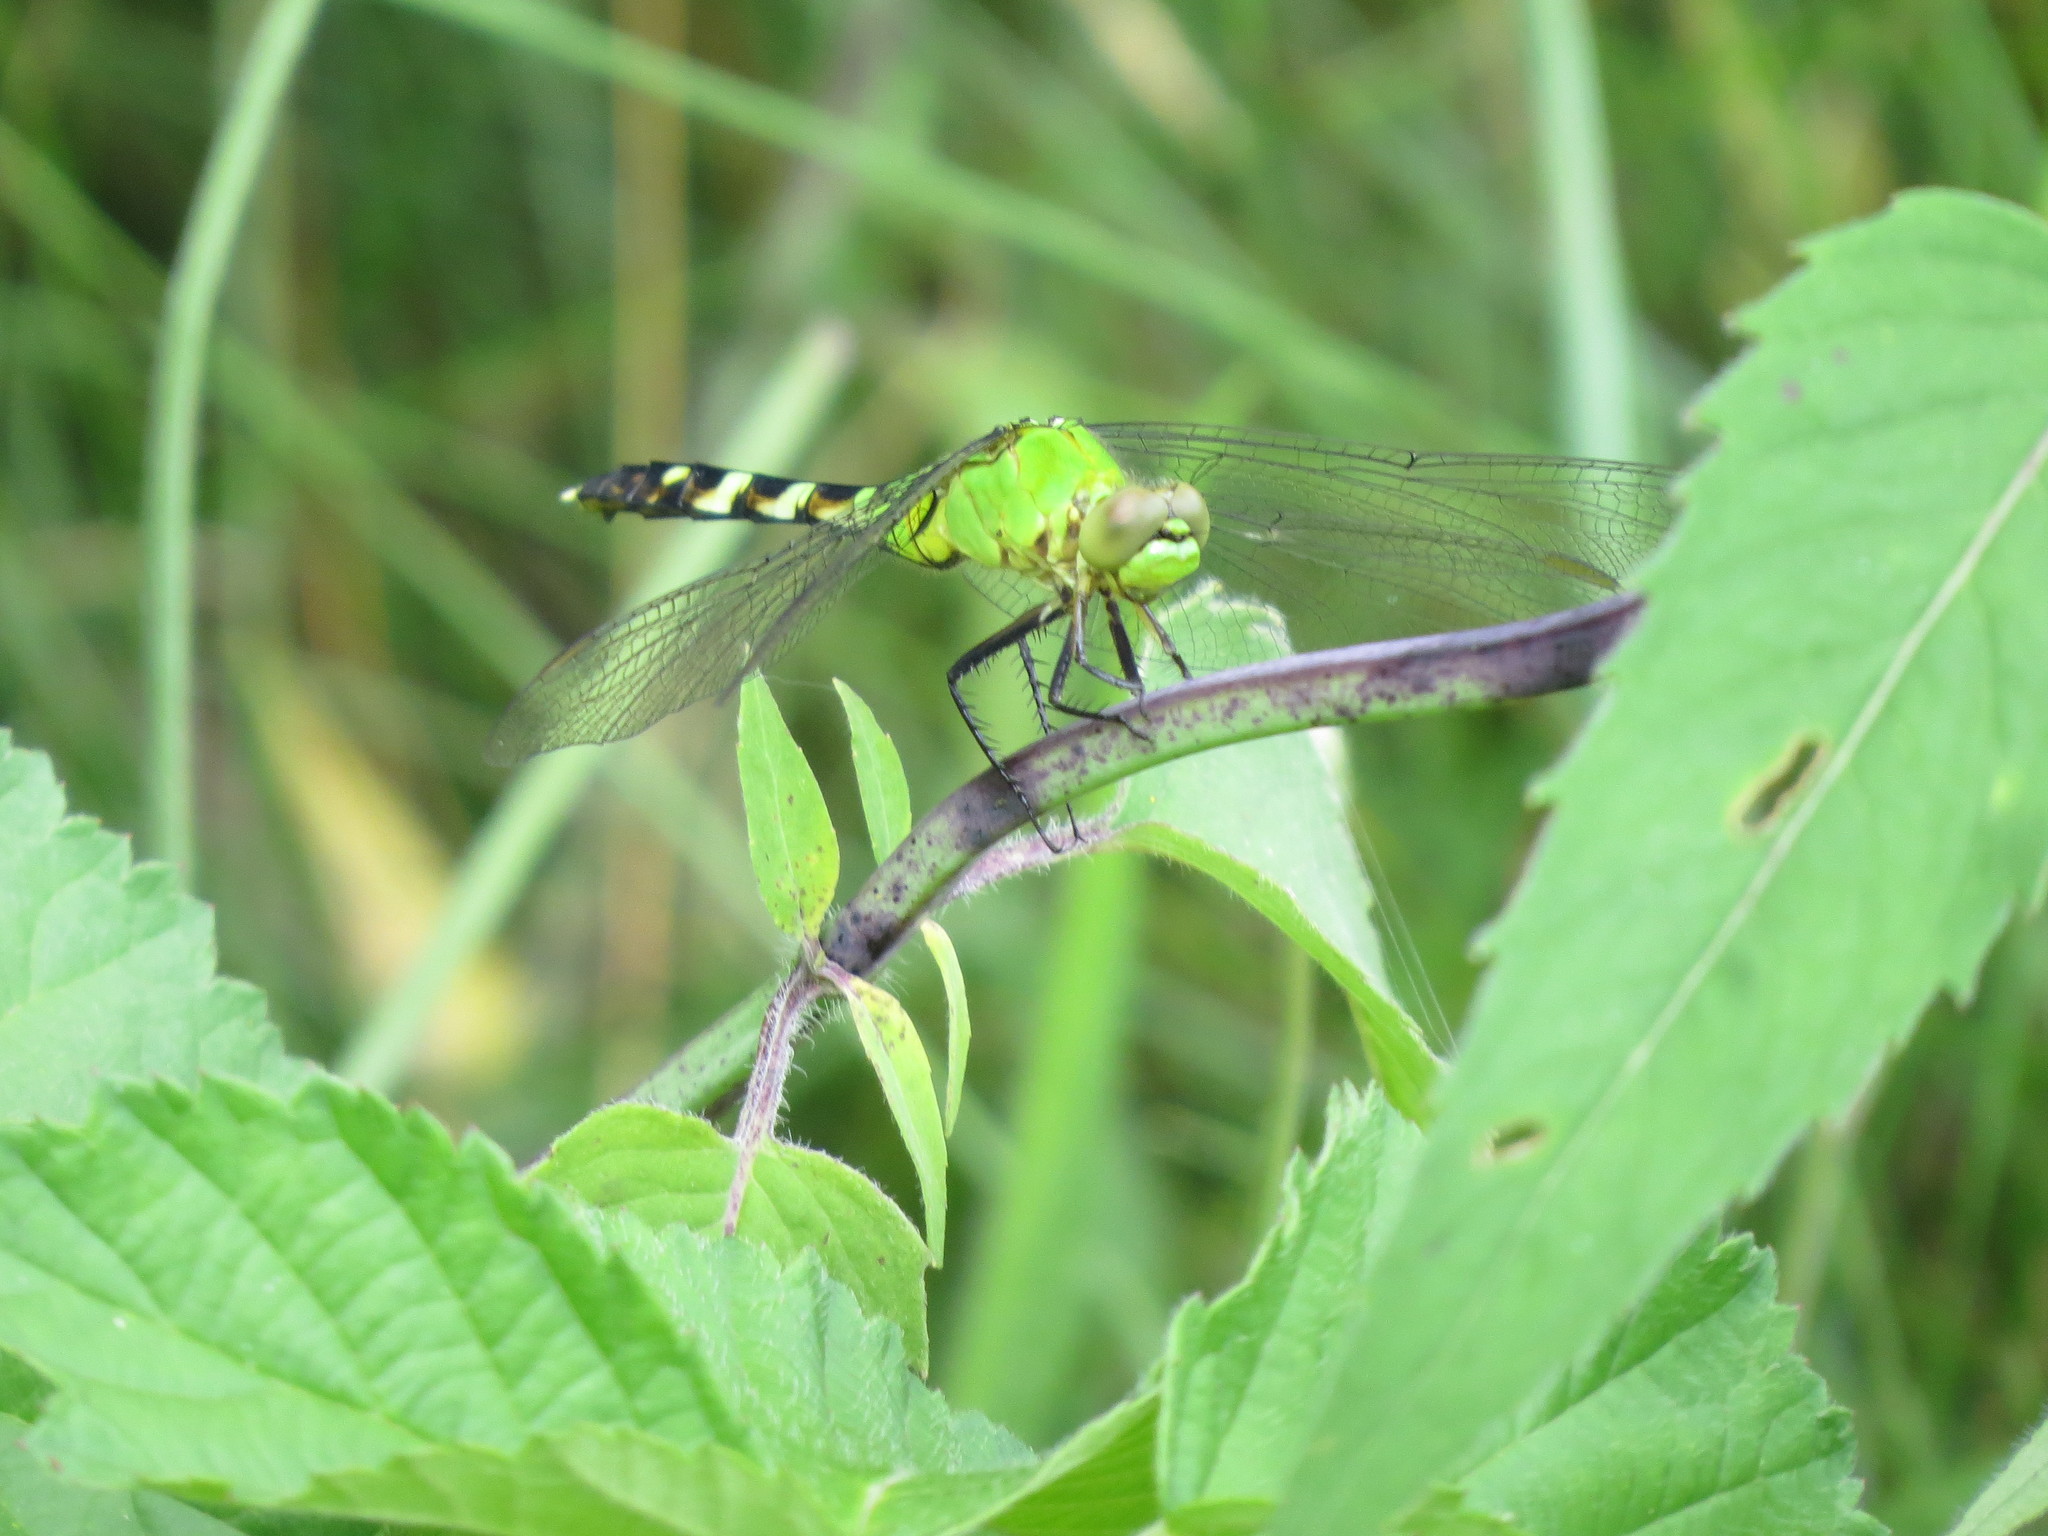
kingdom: Animalia
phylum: Arthropoda
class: Insecta
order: Odonata
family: Libellulidae
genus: Erythemis
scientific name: Erythemis simplicicollis
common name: Eastern pondhawk
